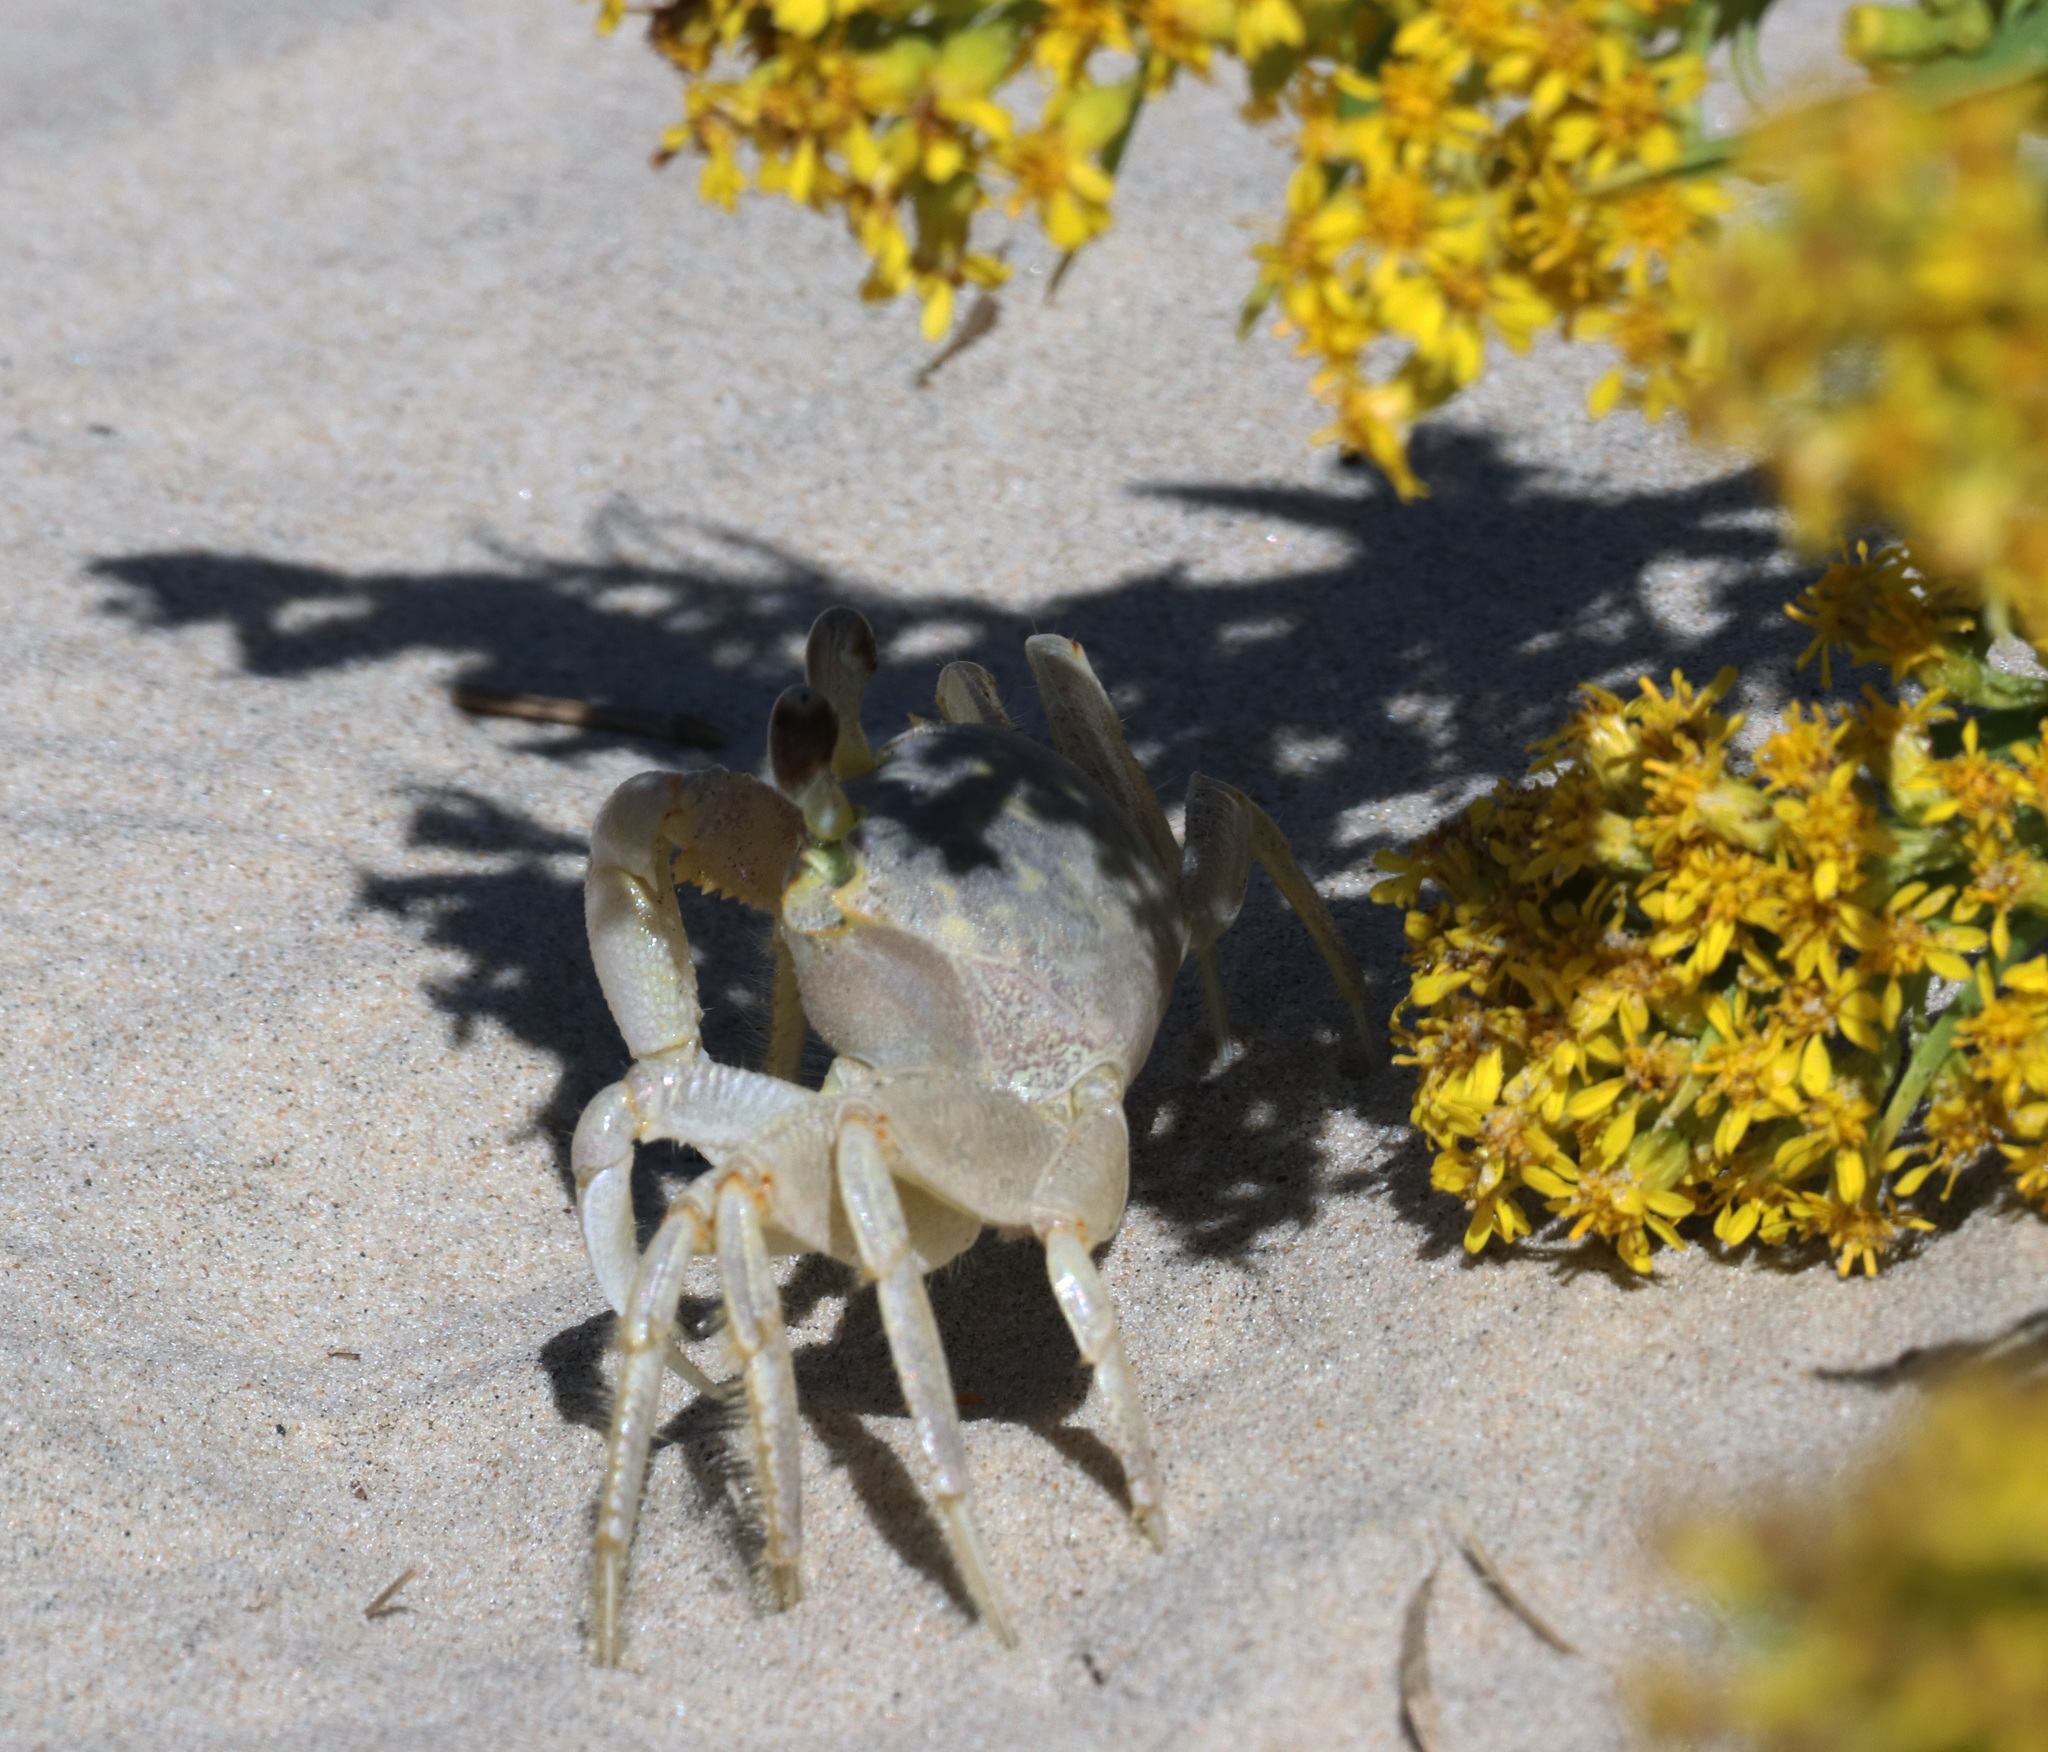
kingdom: Animalia
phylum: Arthropoda
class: Malacostraca
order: Decapoda
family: Ocypodidae
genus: Ocypode
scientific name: Ocypode quadrata
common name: Ghost crab
